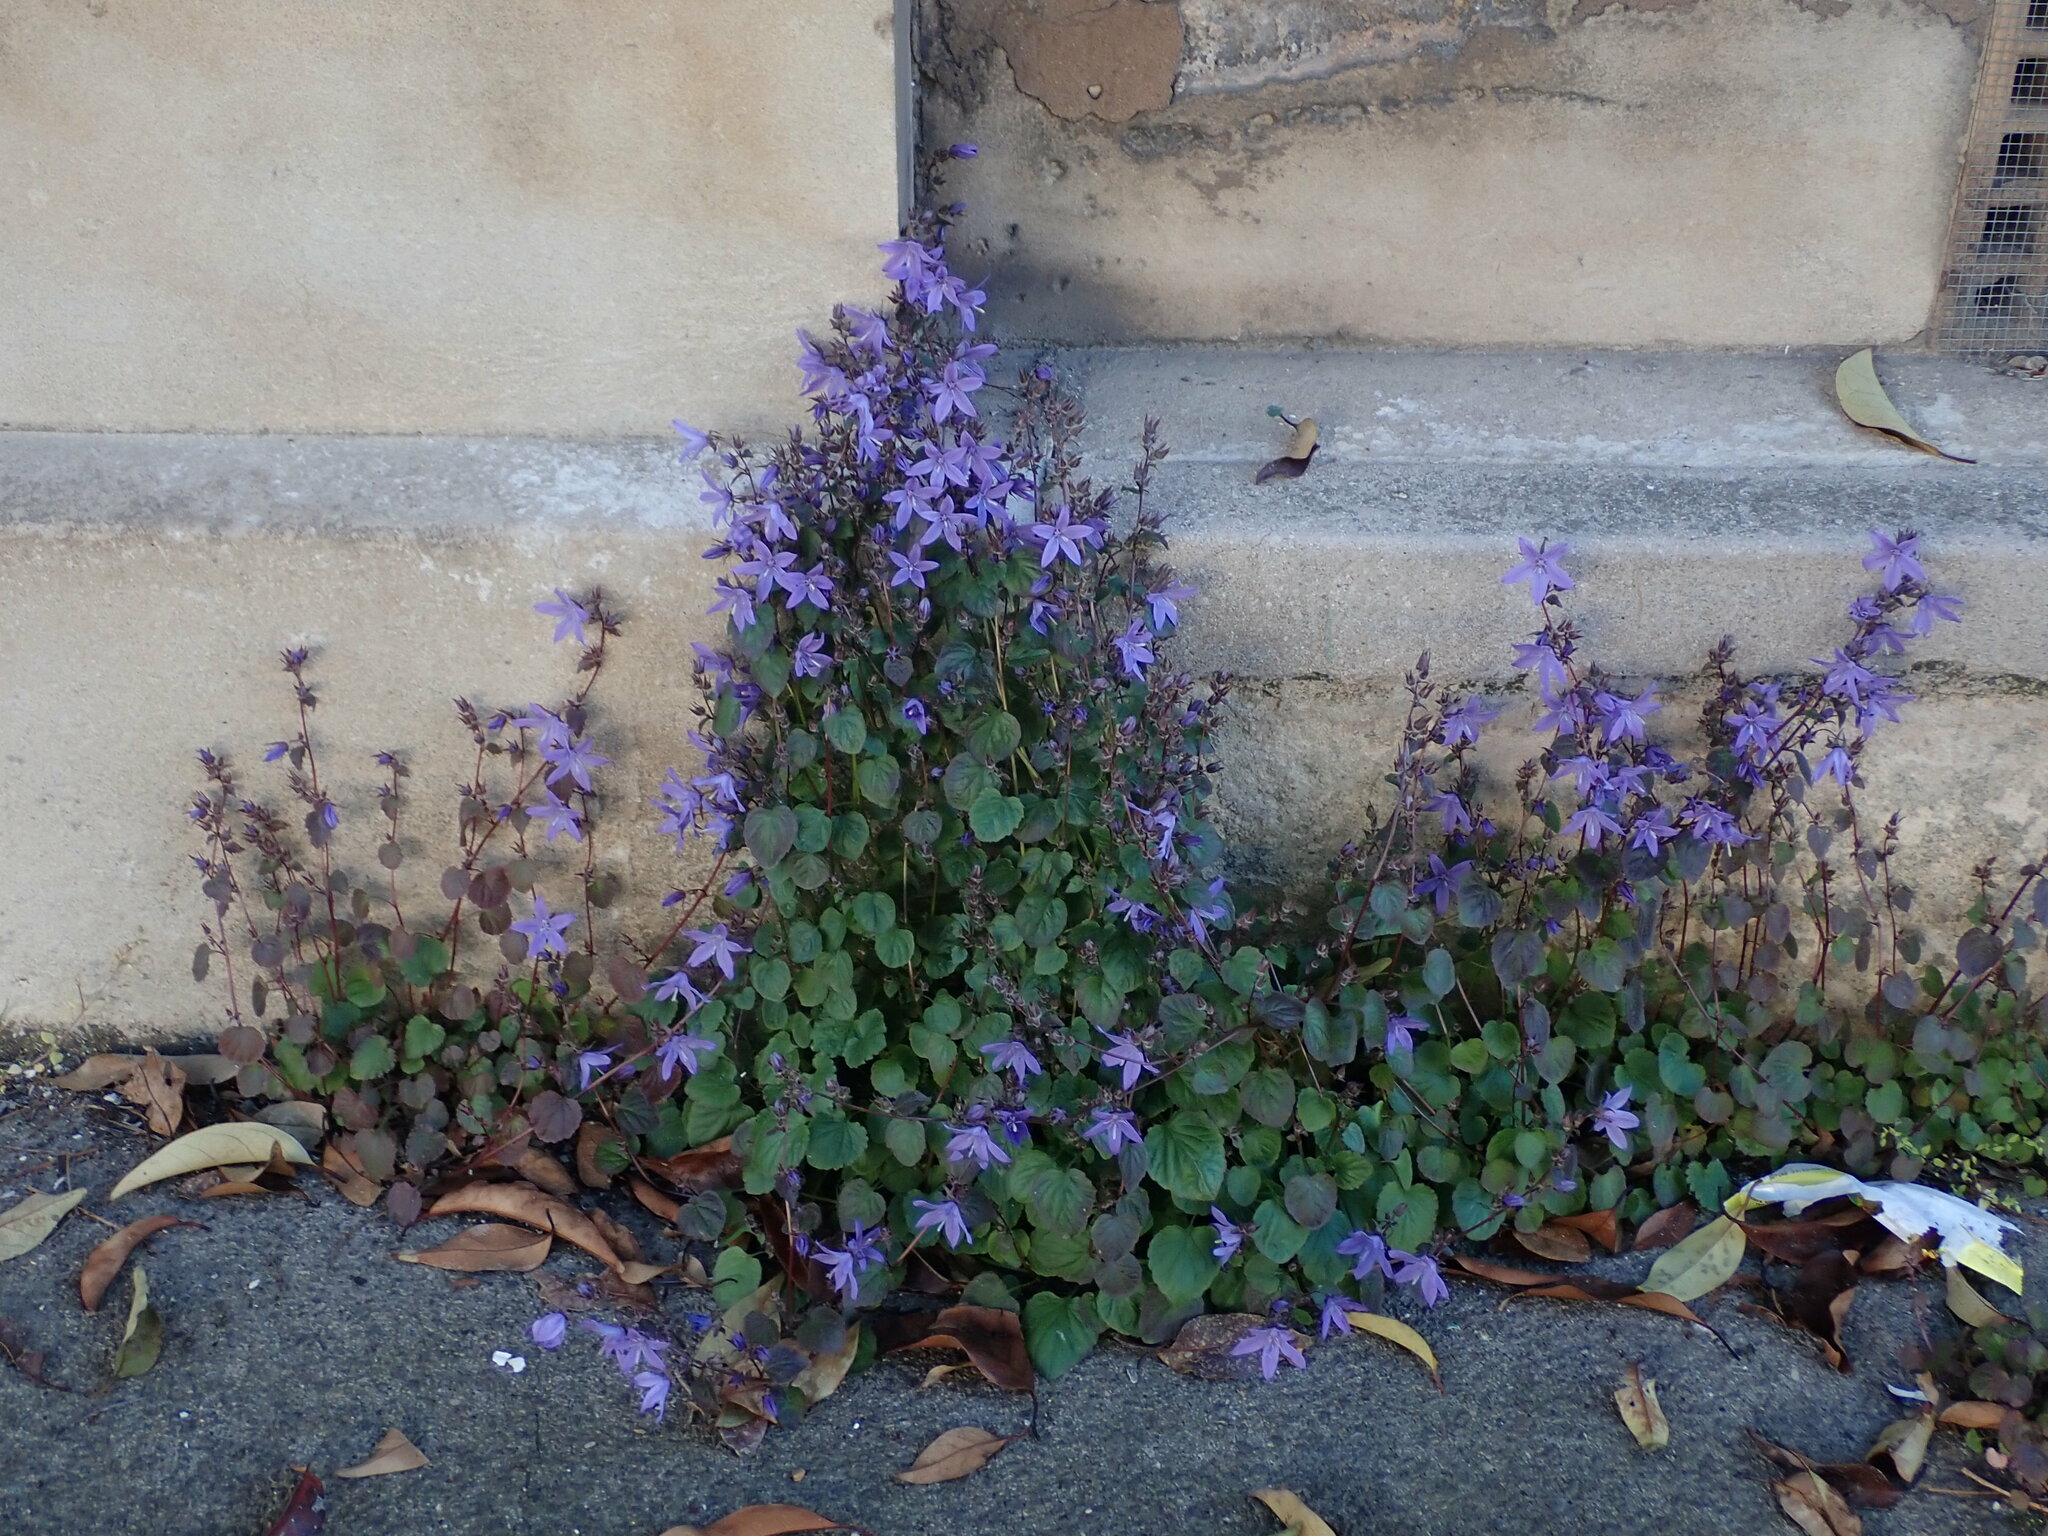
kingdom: Plantae
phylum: Tracheophyta
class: Magnoliopsida
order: Asterales
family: Campanulaceae
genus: Campanula
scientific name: Campanula poscharskyana
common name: Trailing bellflower
